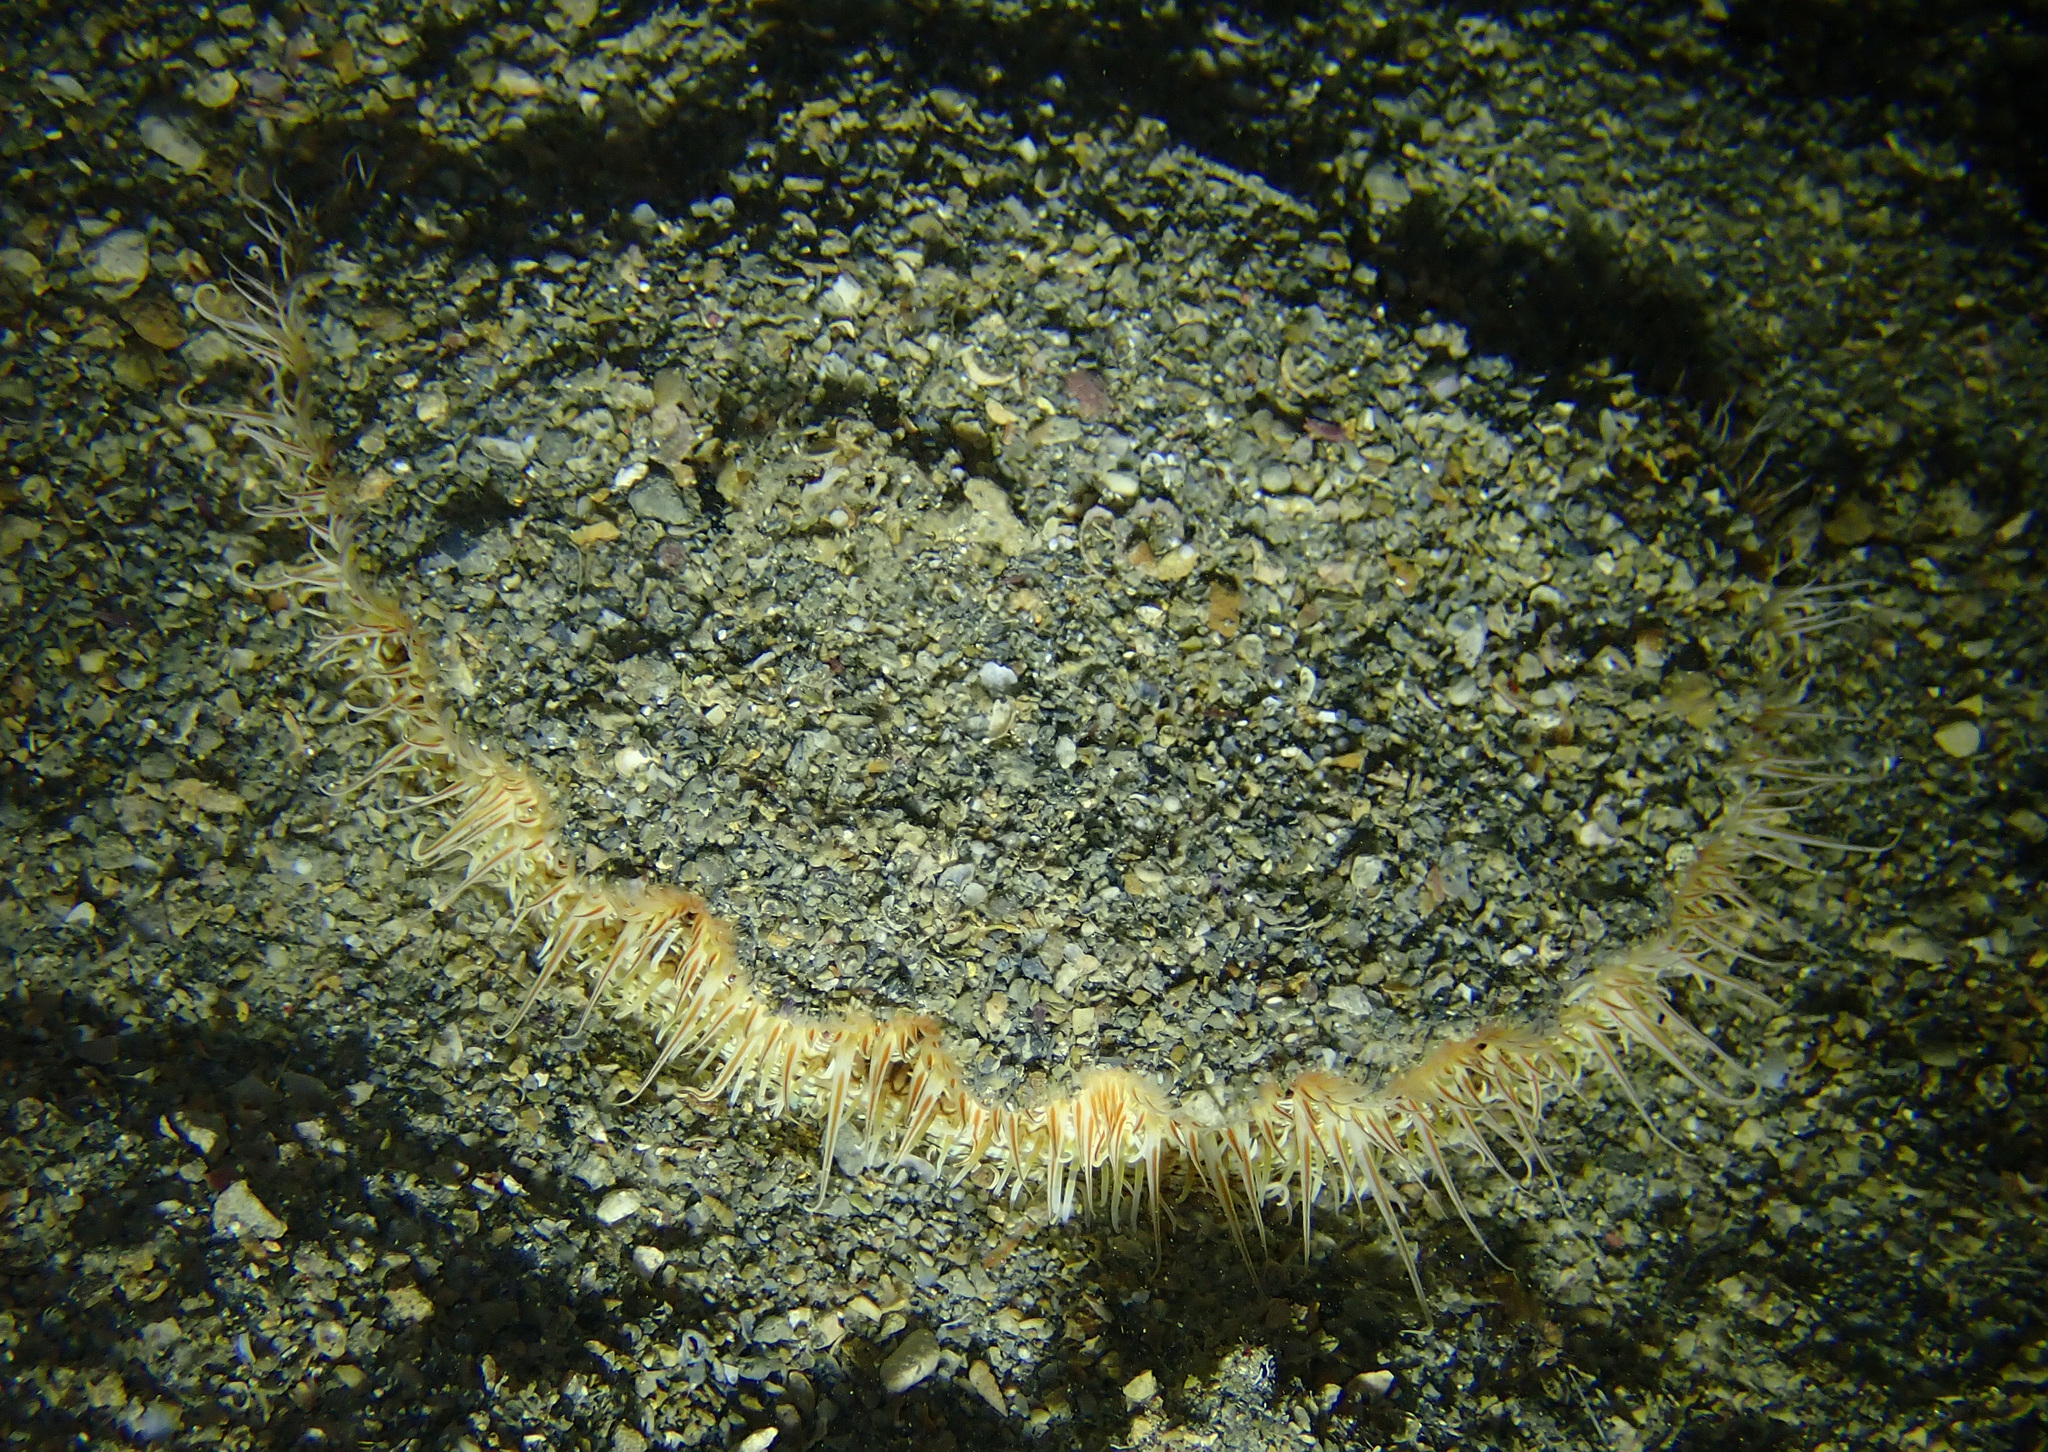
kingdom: Animalia
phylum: Mollusca
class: Bivalvia
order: Pectinida
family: Pectinidae
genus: Pecten
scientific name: Pecten jacobaeus
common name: St.james's scallop
